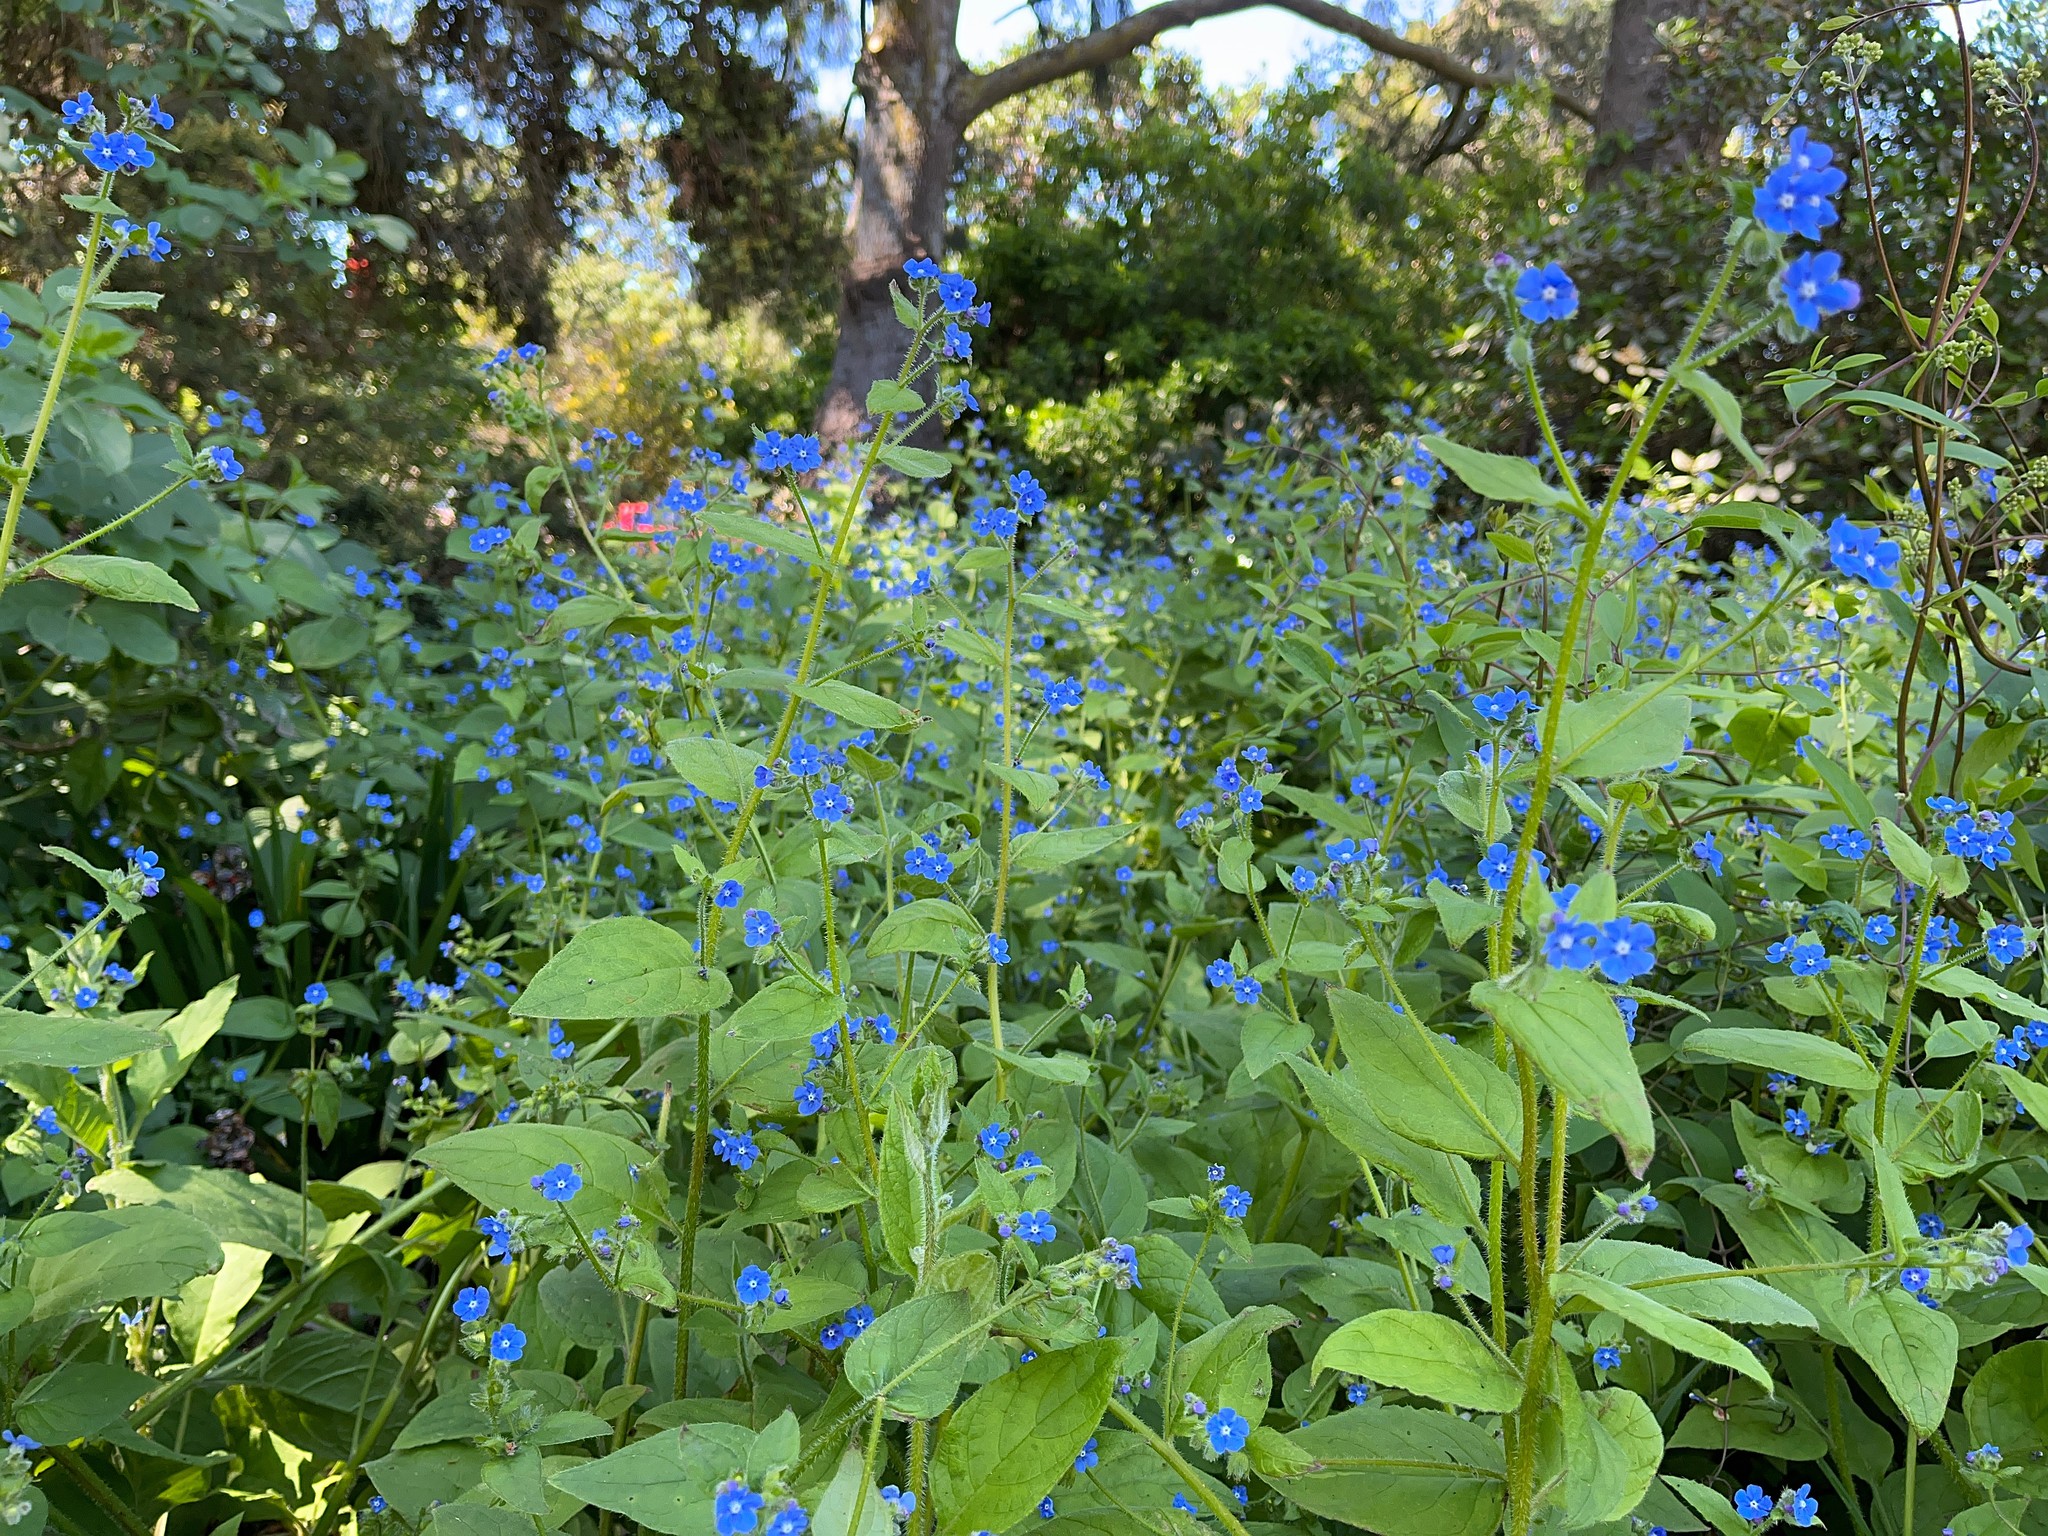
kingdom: Plantae
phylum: Tracheophyta
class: Magnoliopsida
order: Boraginales
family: Boraginaceae
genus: Pentaglottis
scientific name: Pentaglottis sempervirens
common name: Green alkanet
